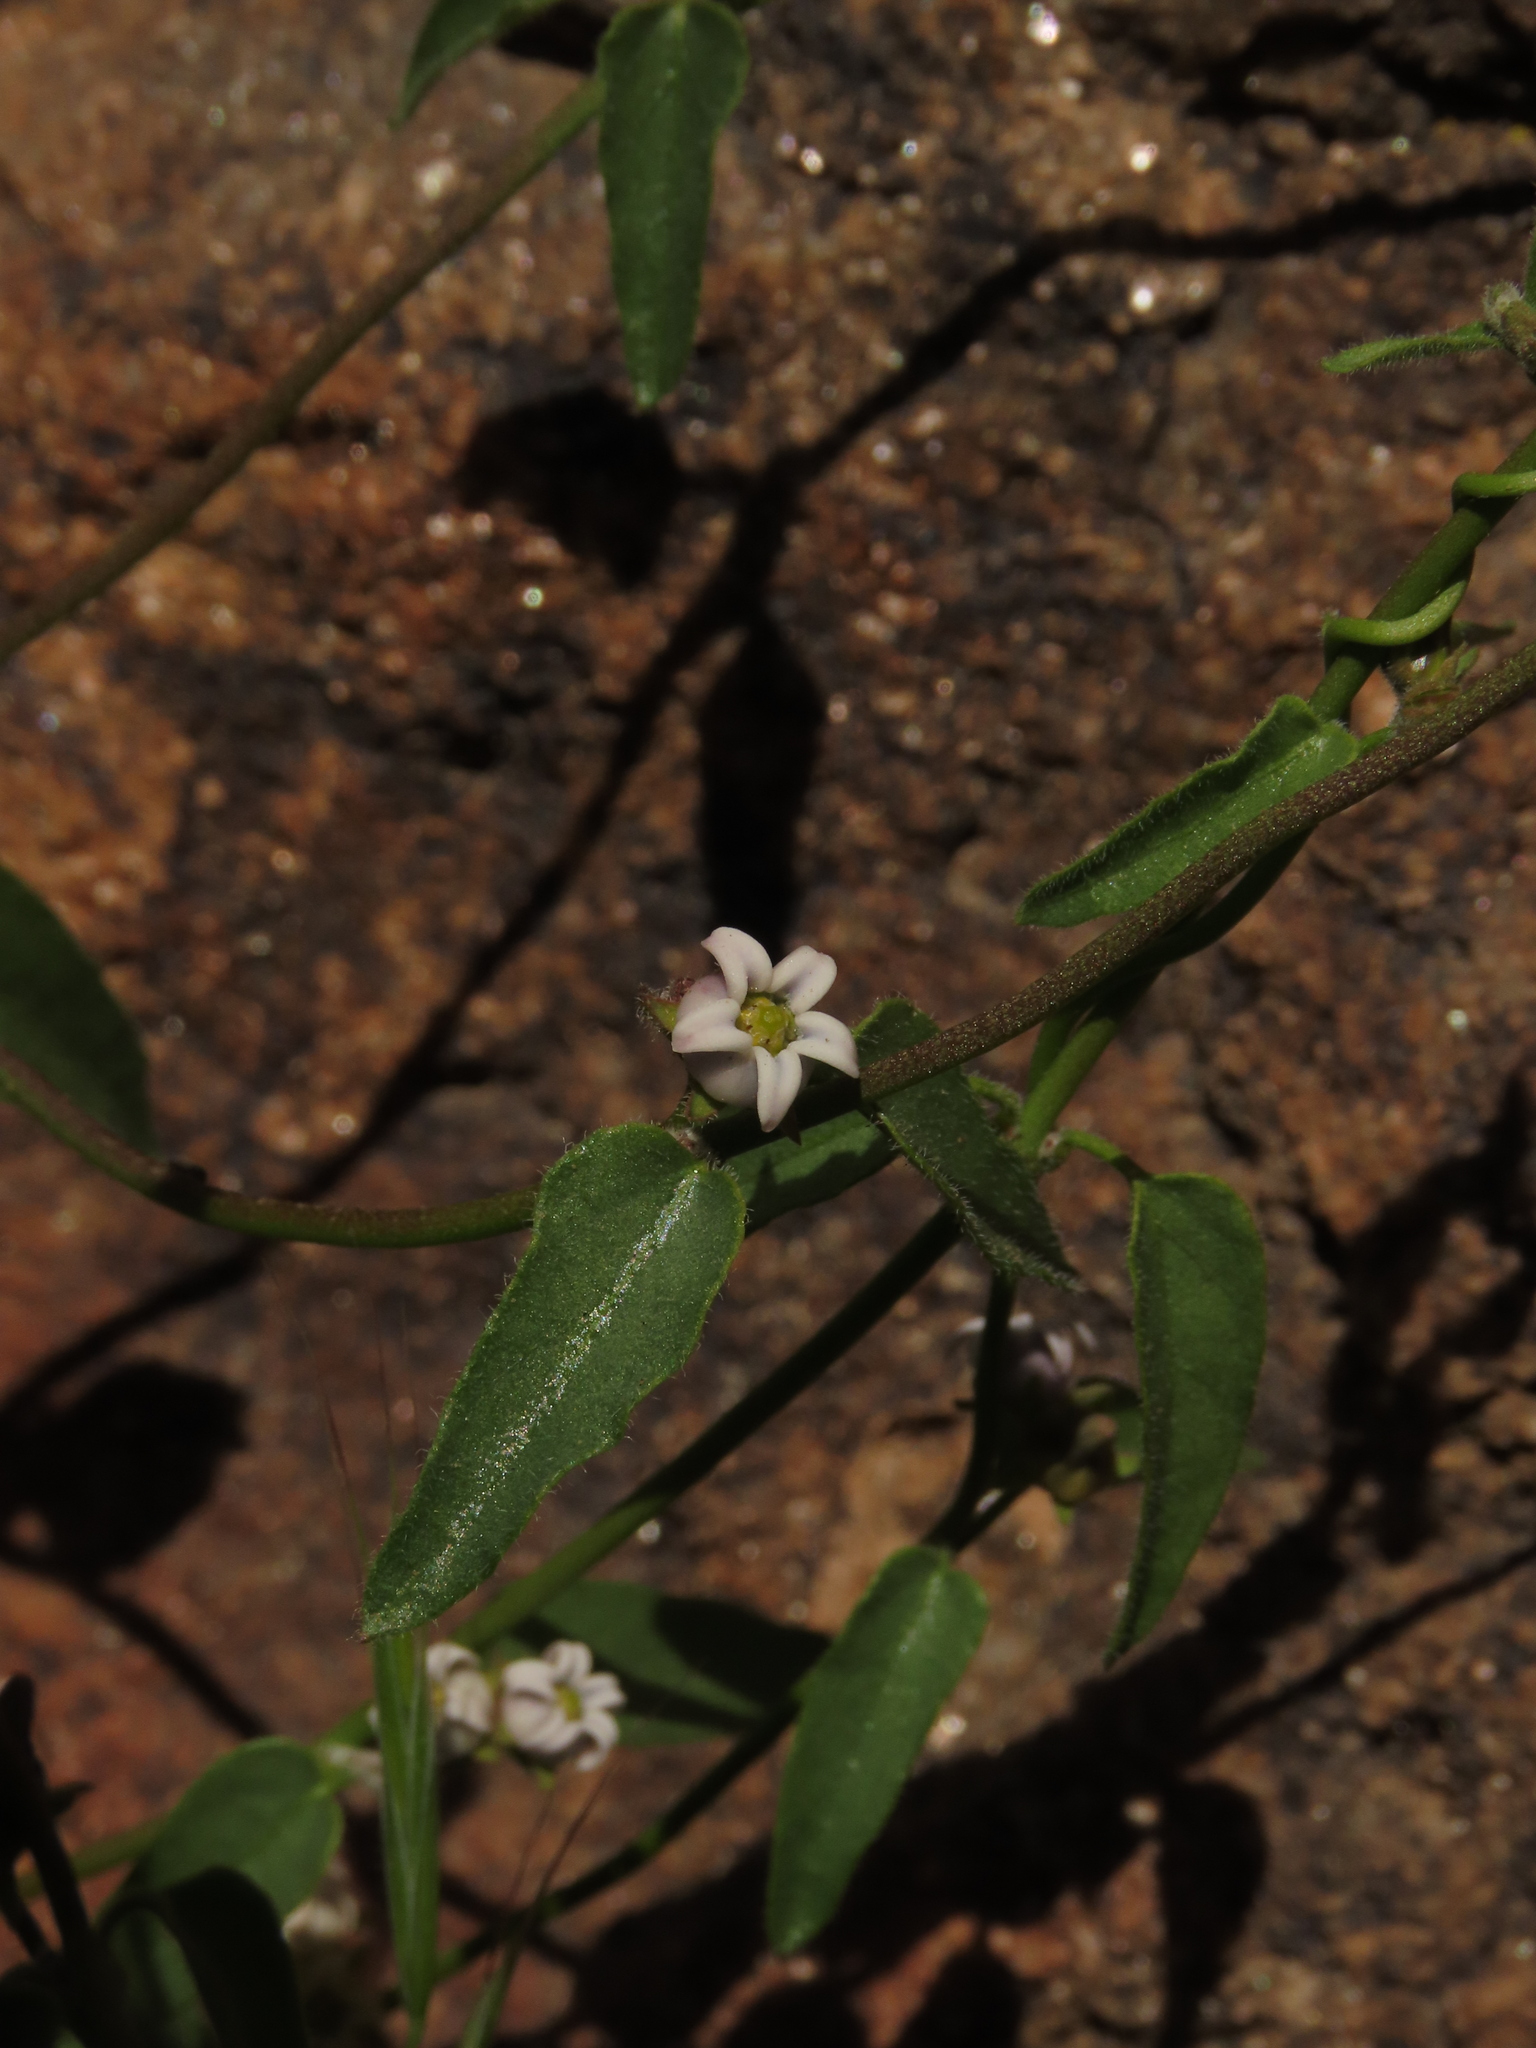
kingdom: Plantae
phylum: Tracheophyta
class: Magnoliopsida
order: Gentianales
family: Apocynaceae
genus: Diplolepis
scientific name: Diplolepis geminiflora
